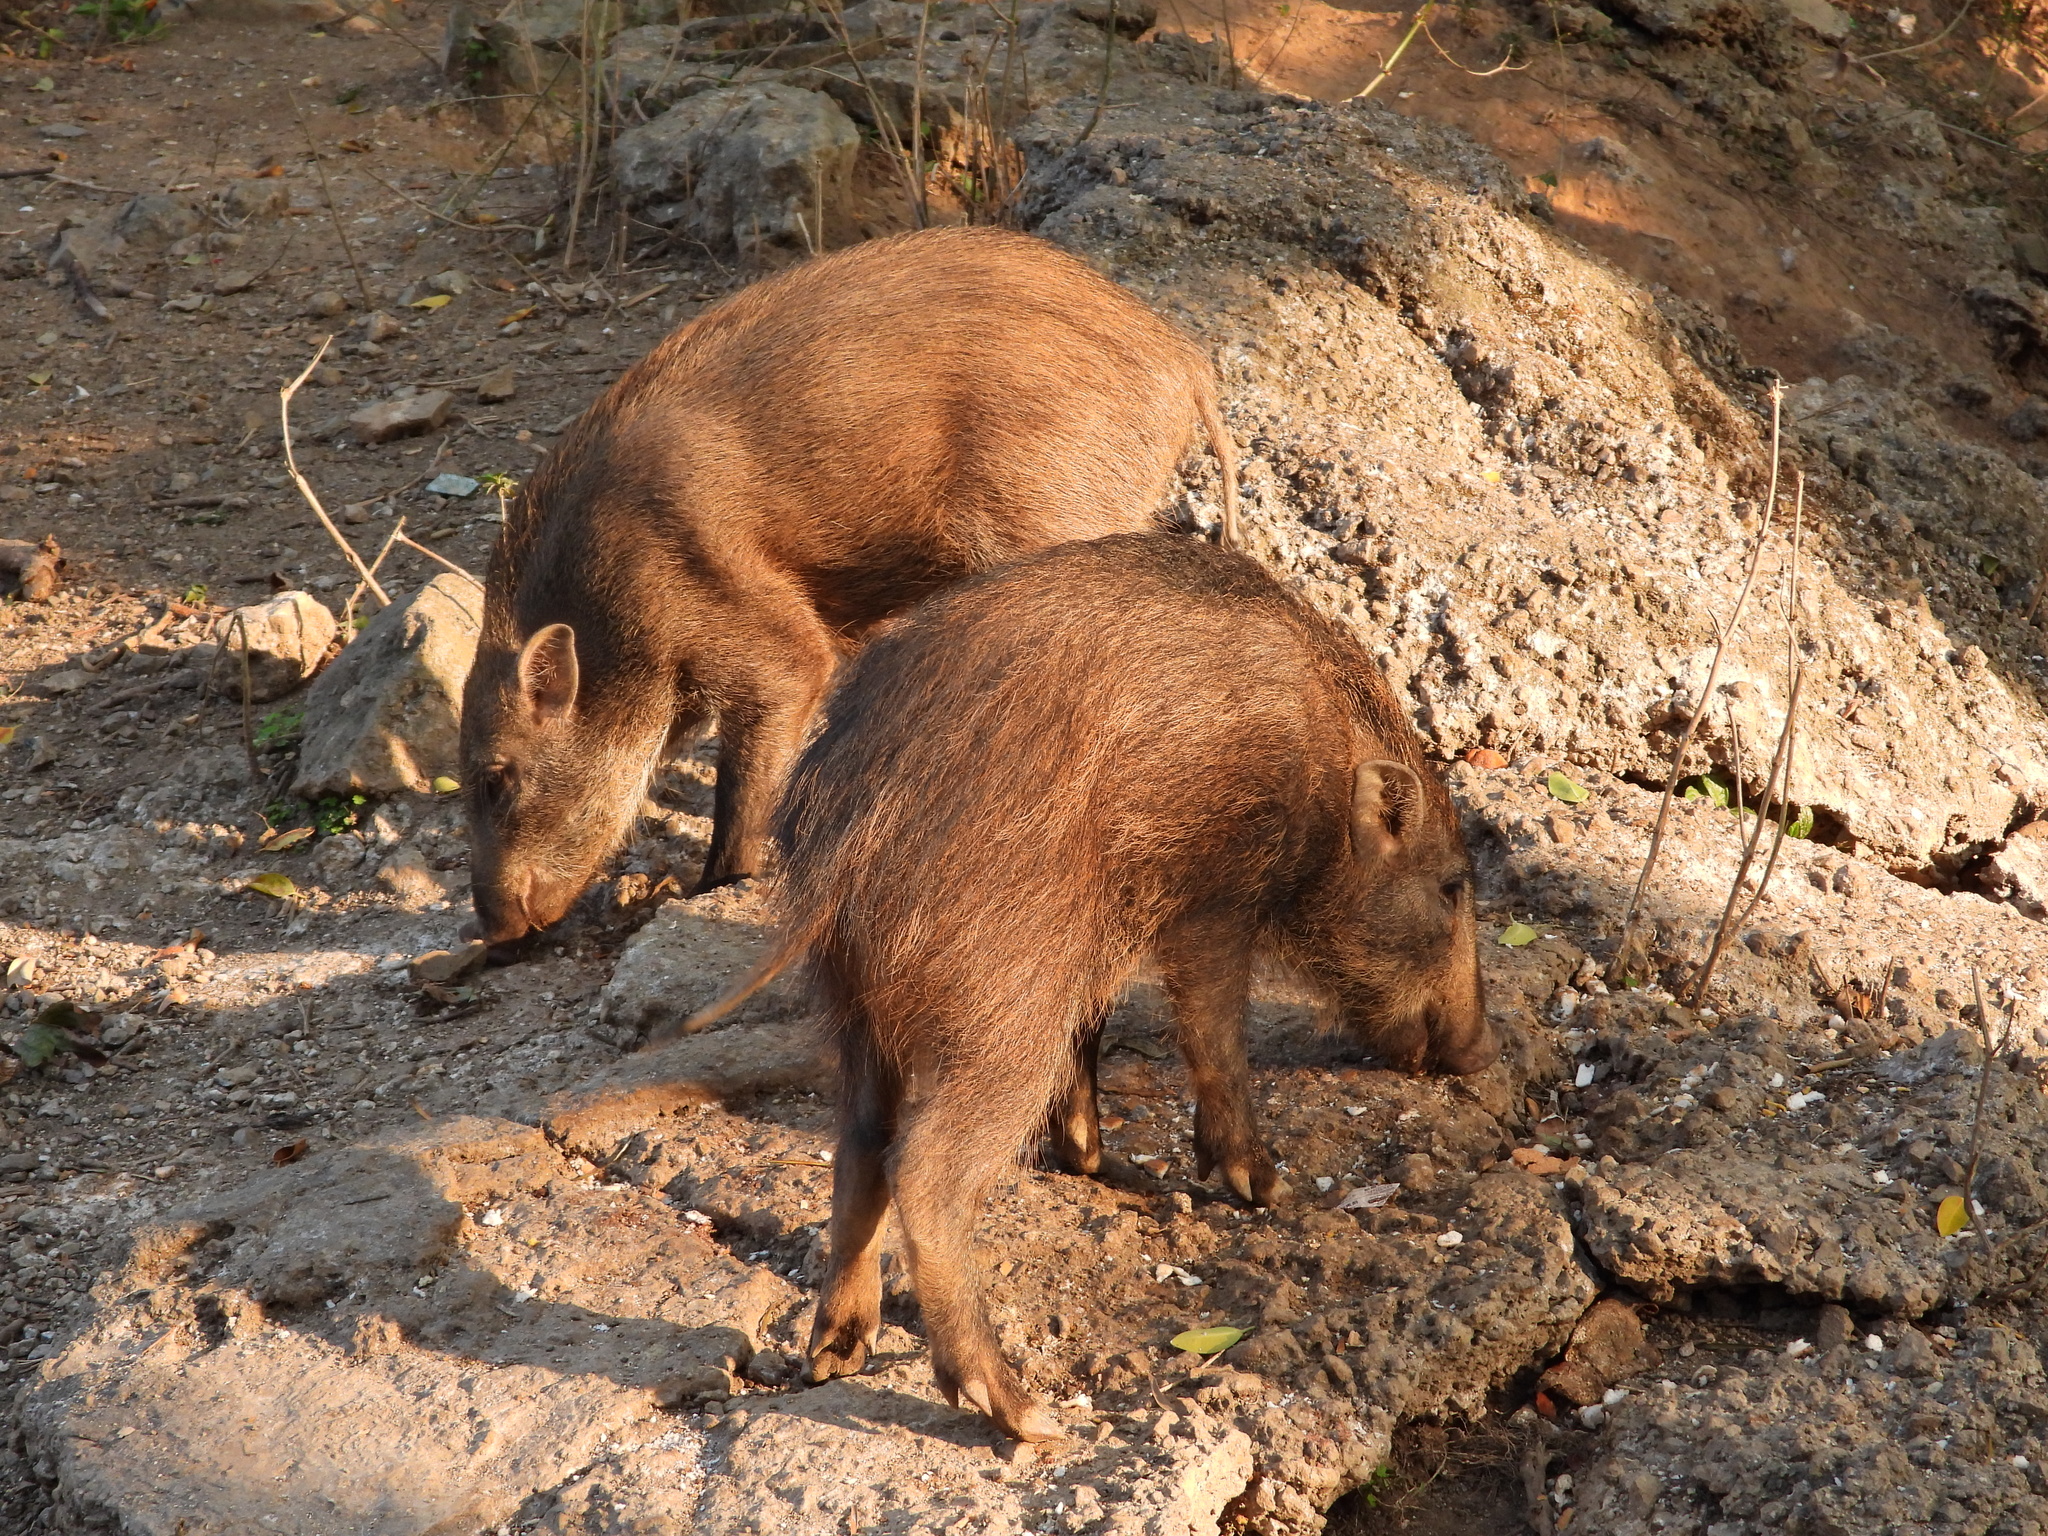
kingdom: Animalia
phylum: Chordata
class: Mammalia
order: Artiodactyla
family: Suidae
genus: Sus
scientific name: Sus scrofa
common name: Wild boar
